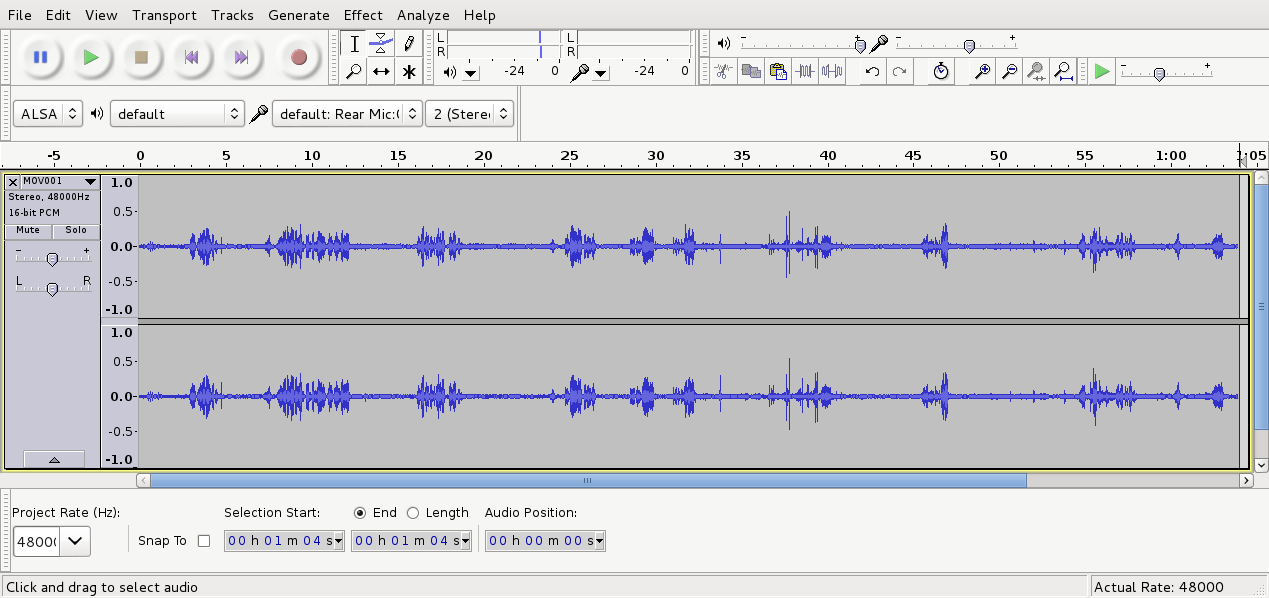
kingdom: Animalia
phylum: Chordata
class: Aves
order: Passeriformes
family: Zosteropidae
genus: Zosterops
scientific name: Zosterops lateralis
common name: Silvereye
